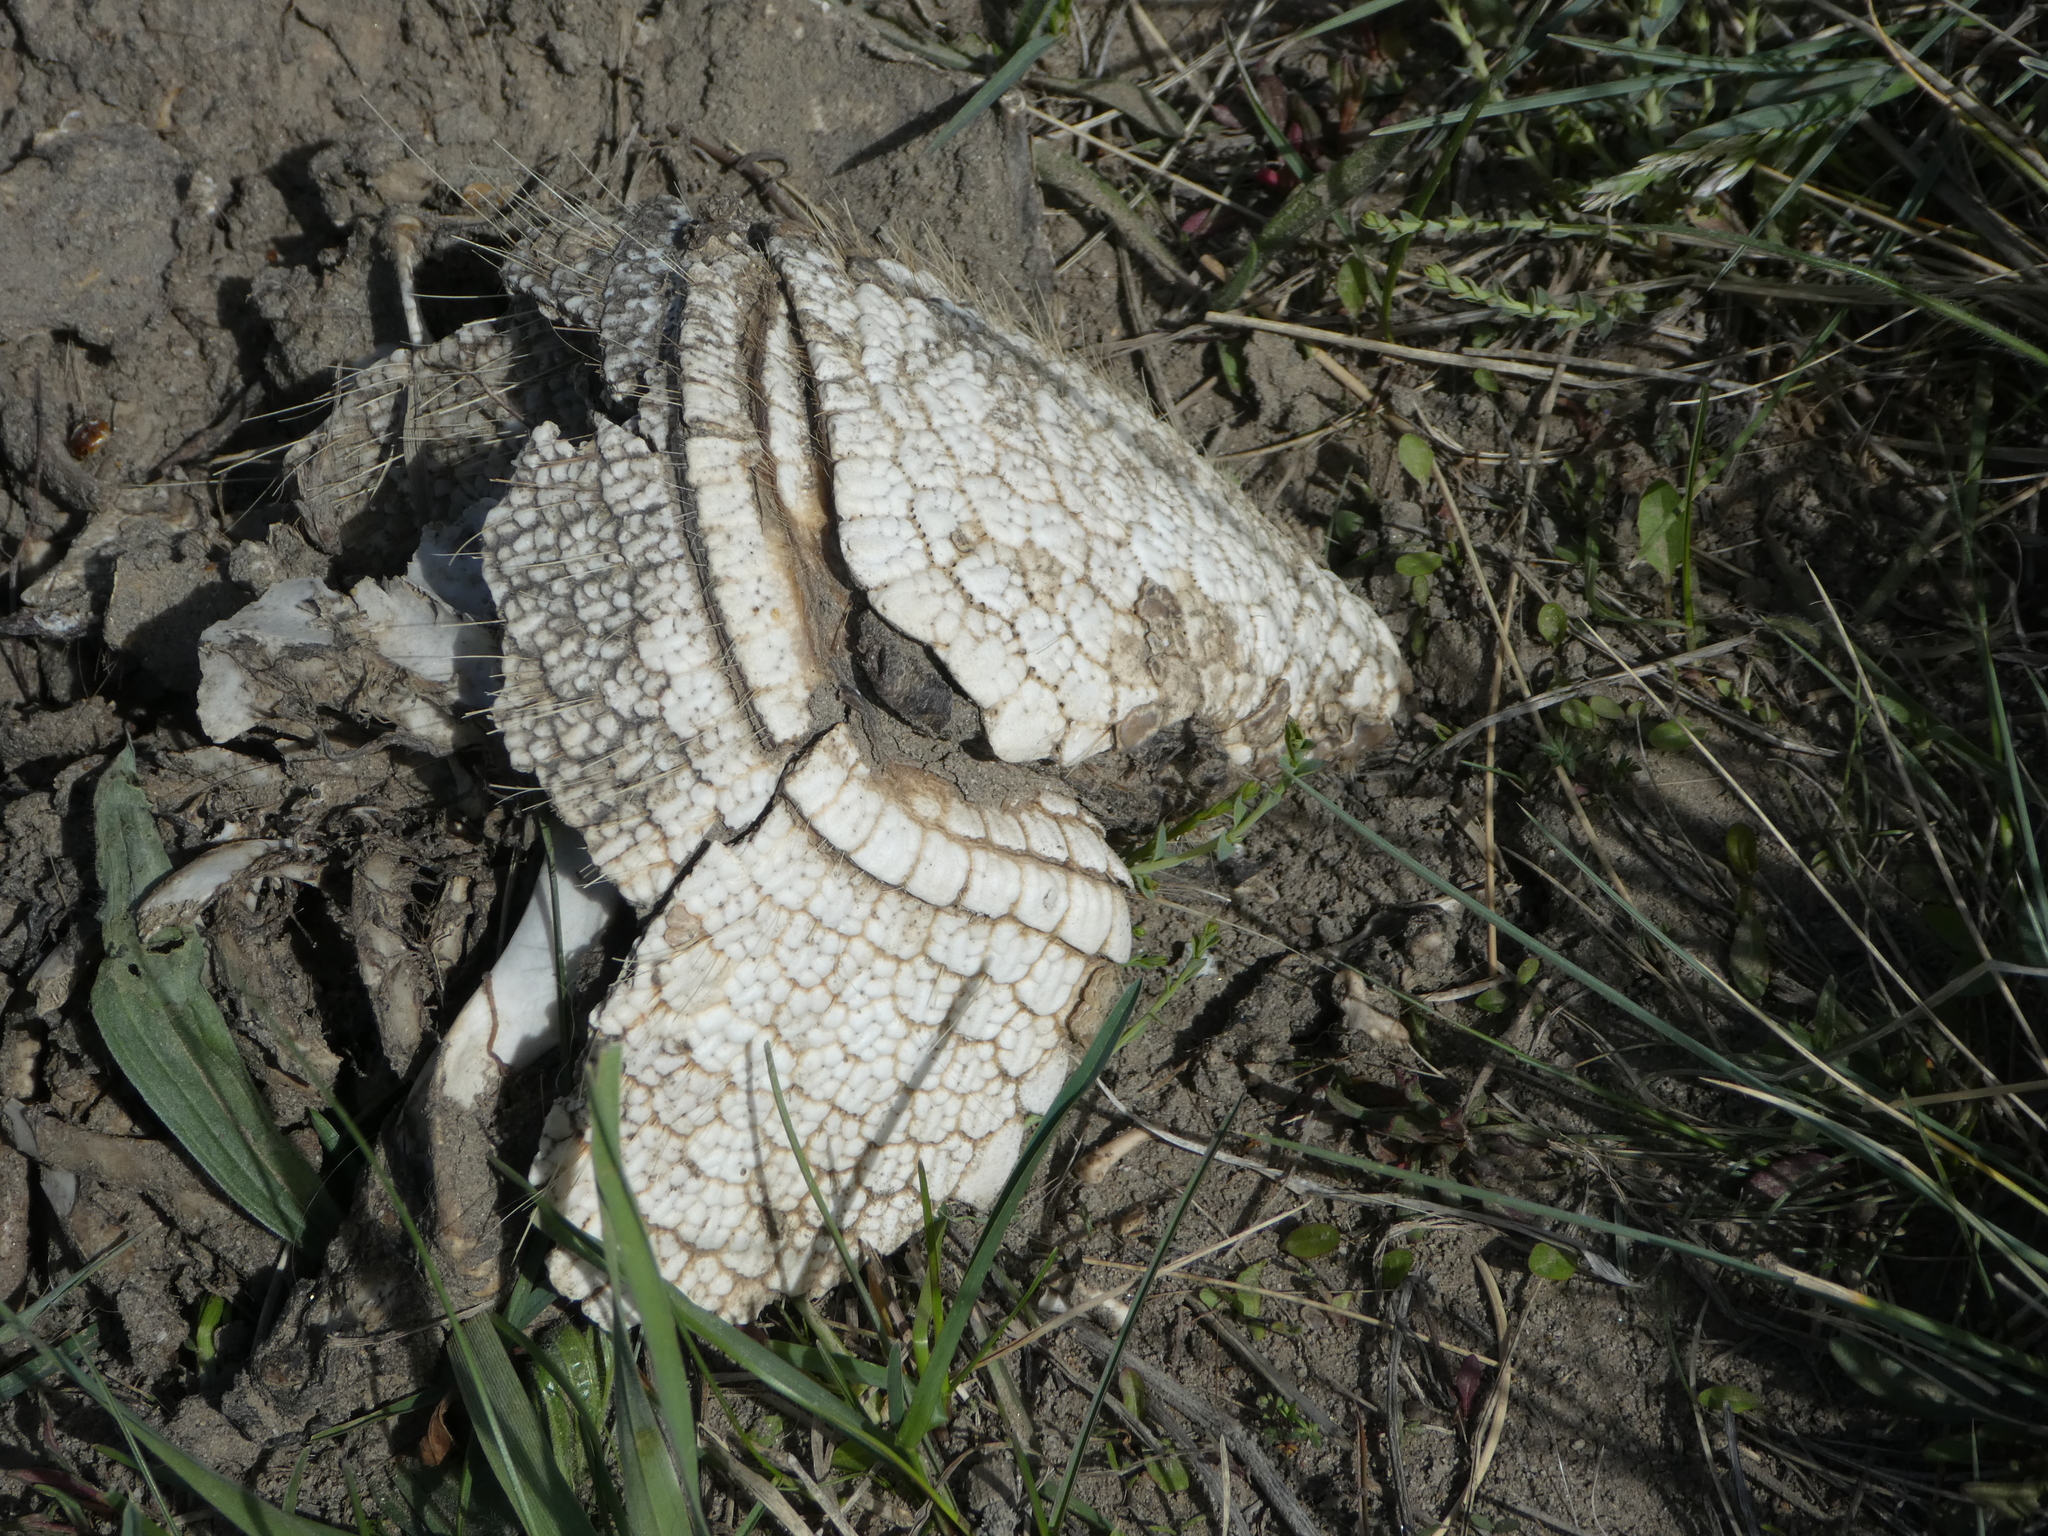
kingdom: Animalia
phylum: Chordata
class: Mammalia
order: Cingulata
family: Dasypodidae
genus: Chaetophractus
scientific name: Chaetophractus villosus
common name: Big hairy armadillo
